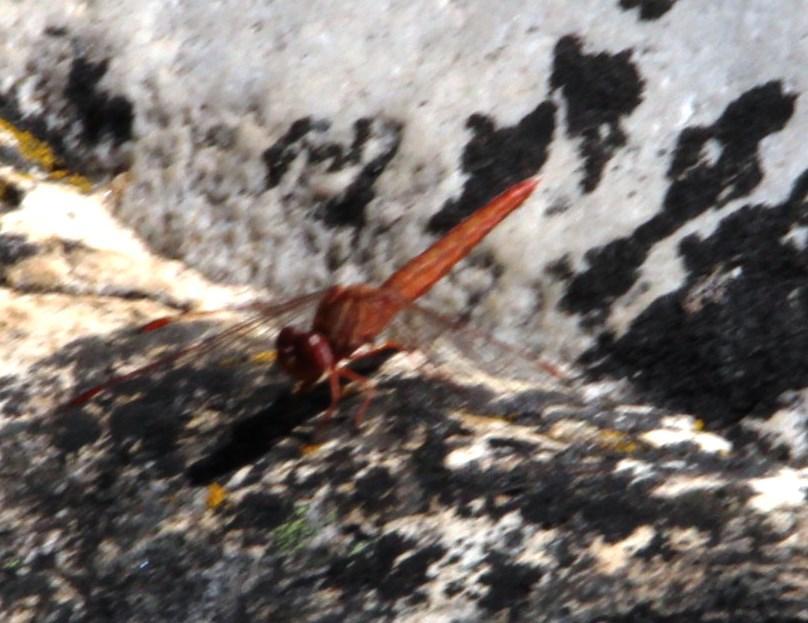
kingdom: Animalia
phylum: Arthropoda
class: Insecta
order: Odonata
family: Libellulidae
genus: Crocothemis
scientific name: Crocothemis erythraea
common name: Scarlet dragonfly
